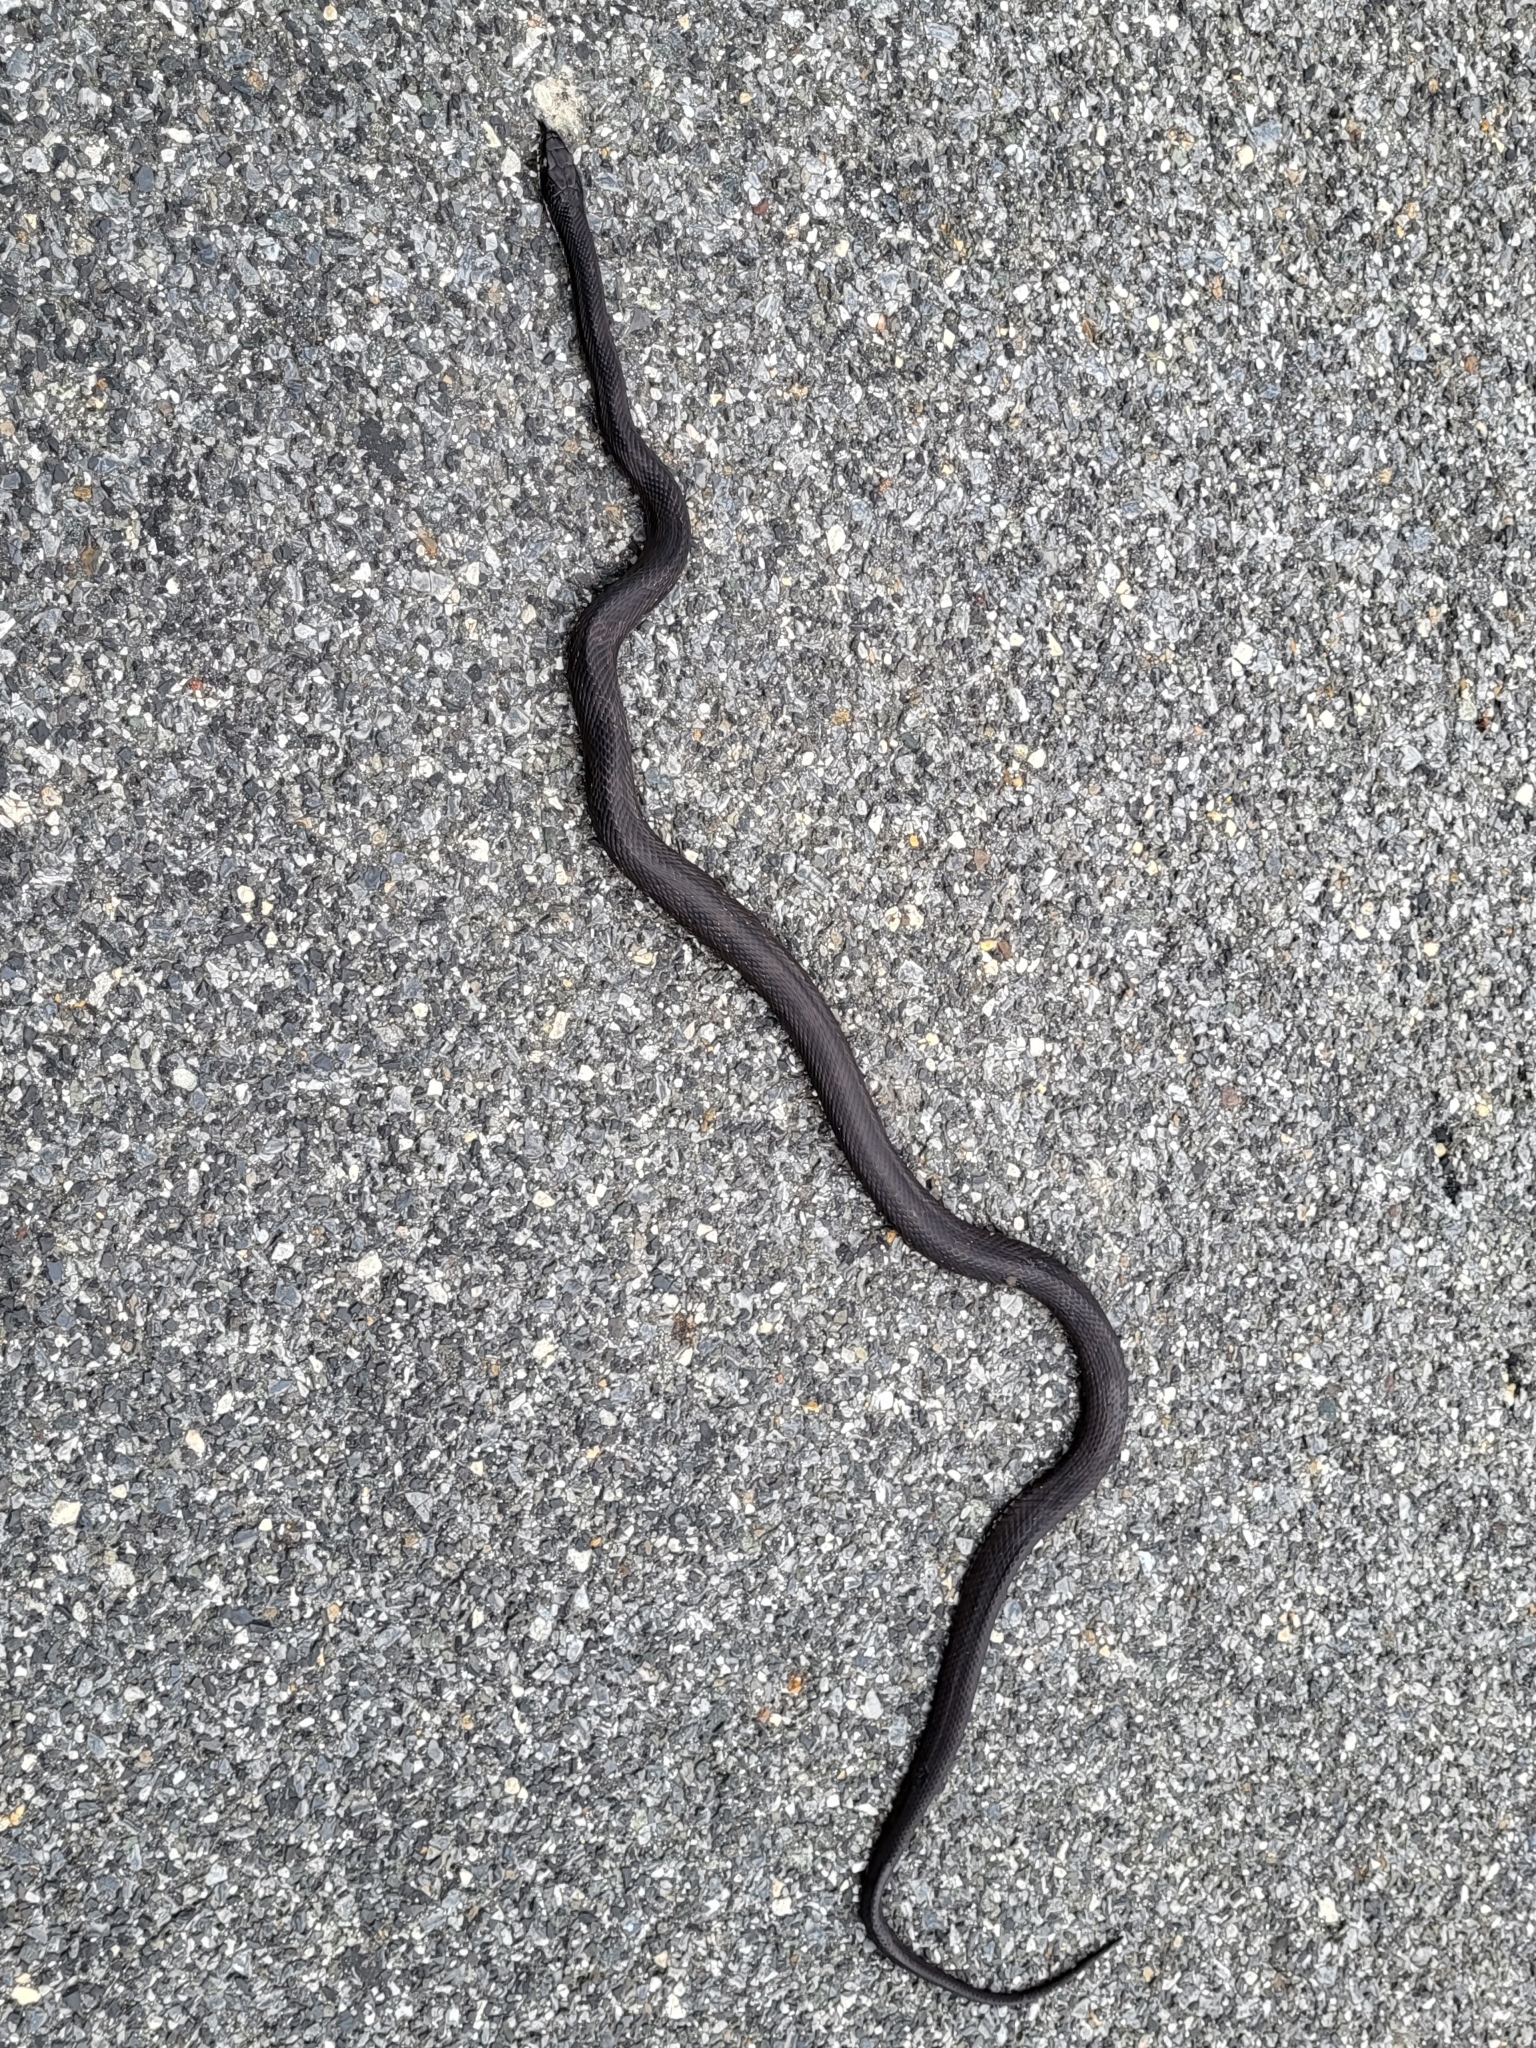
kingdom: Animalia
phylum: Chordata
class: Squamata
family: Colubridae
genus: Pantherophis
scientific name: Pantherophis alleghaniensis
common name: Eastern rat snake
